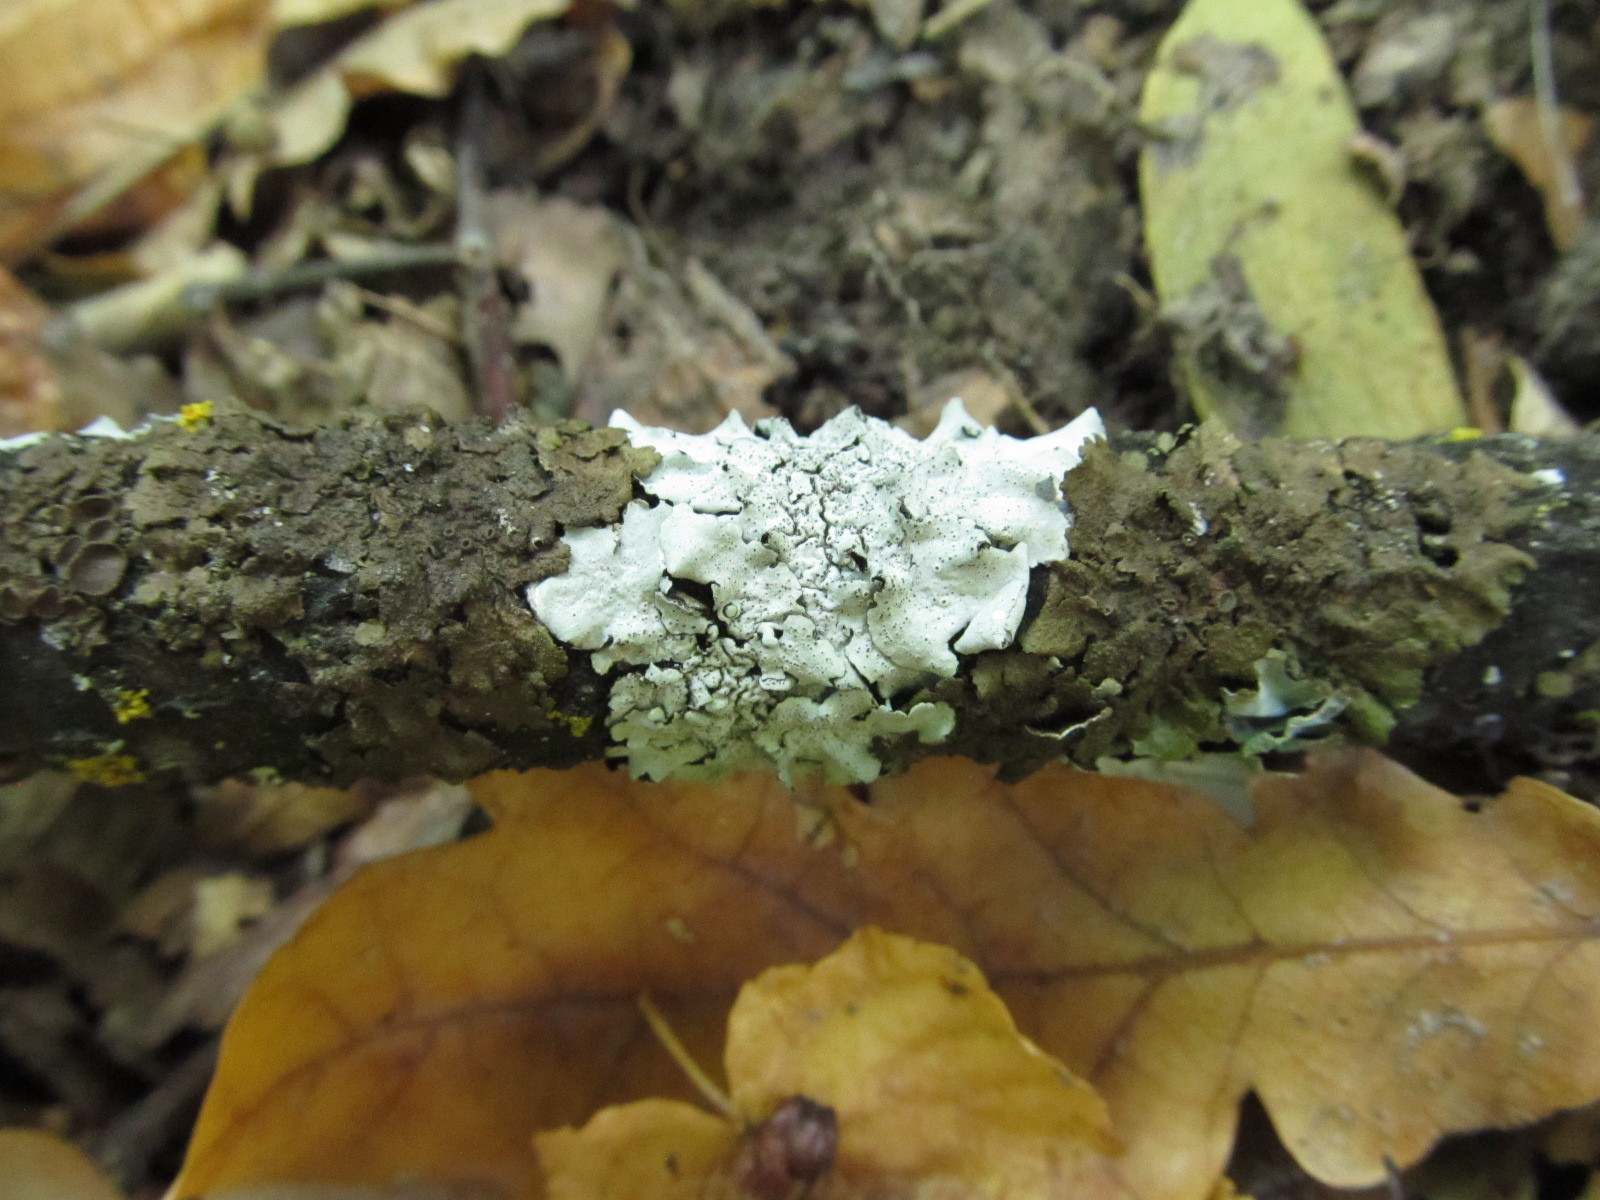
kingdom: Fungi
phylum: Ascomycota
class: Lecanoromycetes
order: Lecanorales
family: Parmeliaceae
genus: Parmelina
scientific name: Parmelina quercina
